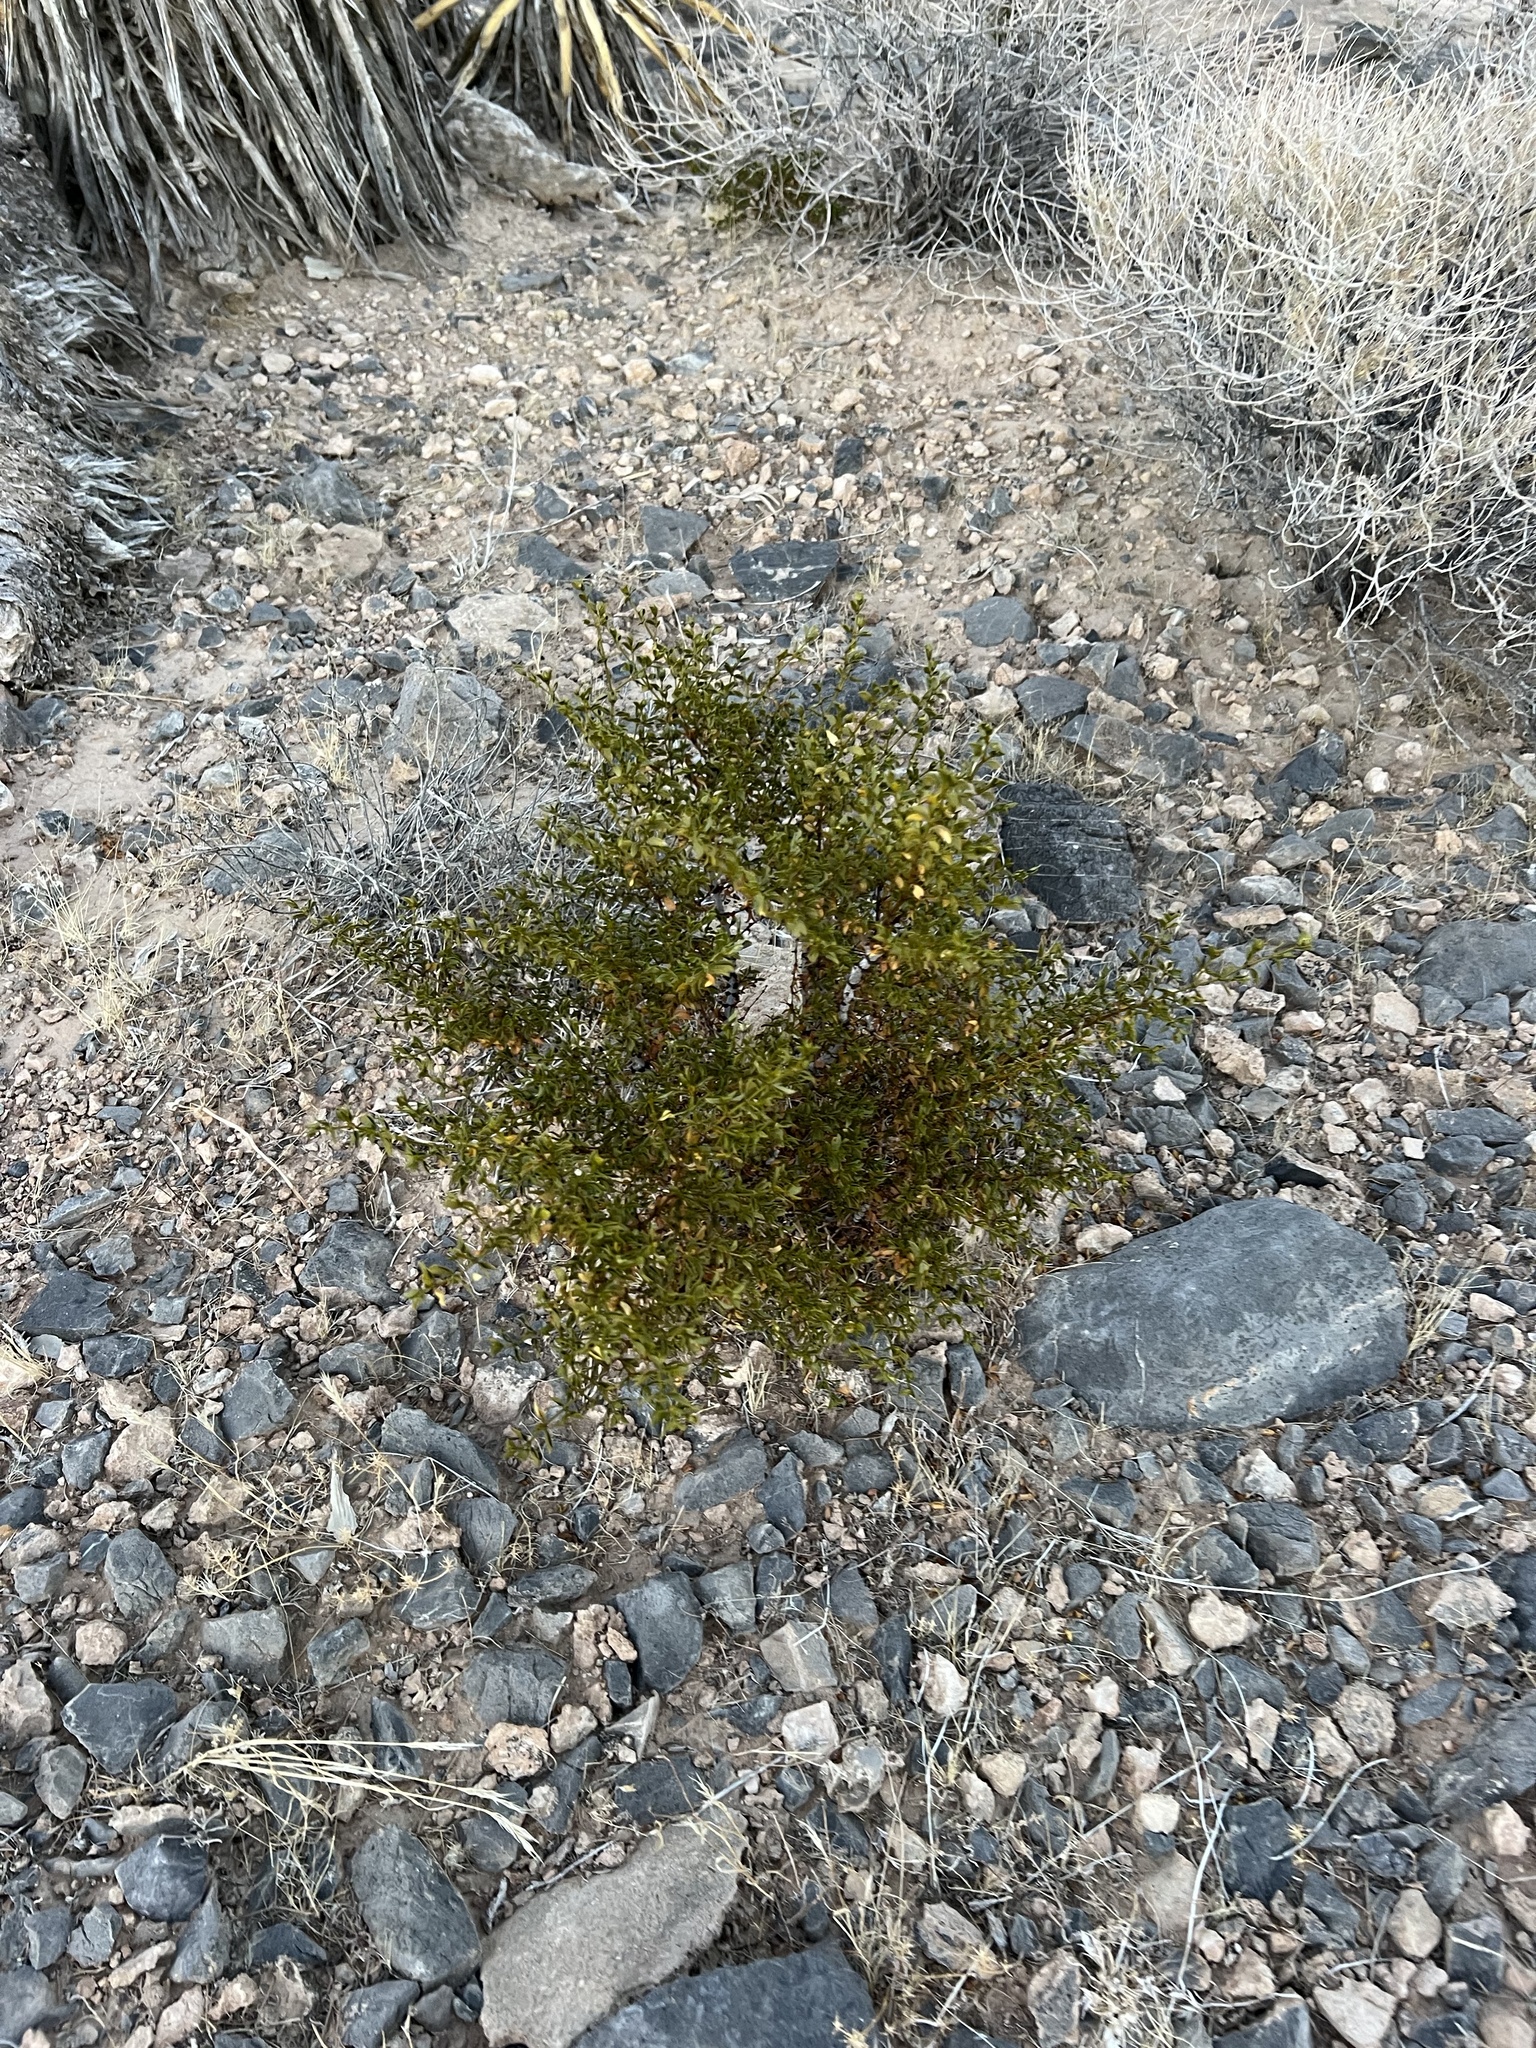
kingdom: Plantae
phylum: Tracheophyta
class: Magnoliopsida
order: Zygophyllales
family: Zygophyllaceae
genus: Larrea
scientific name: Larrea tridentata
